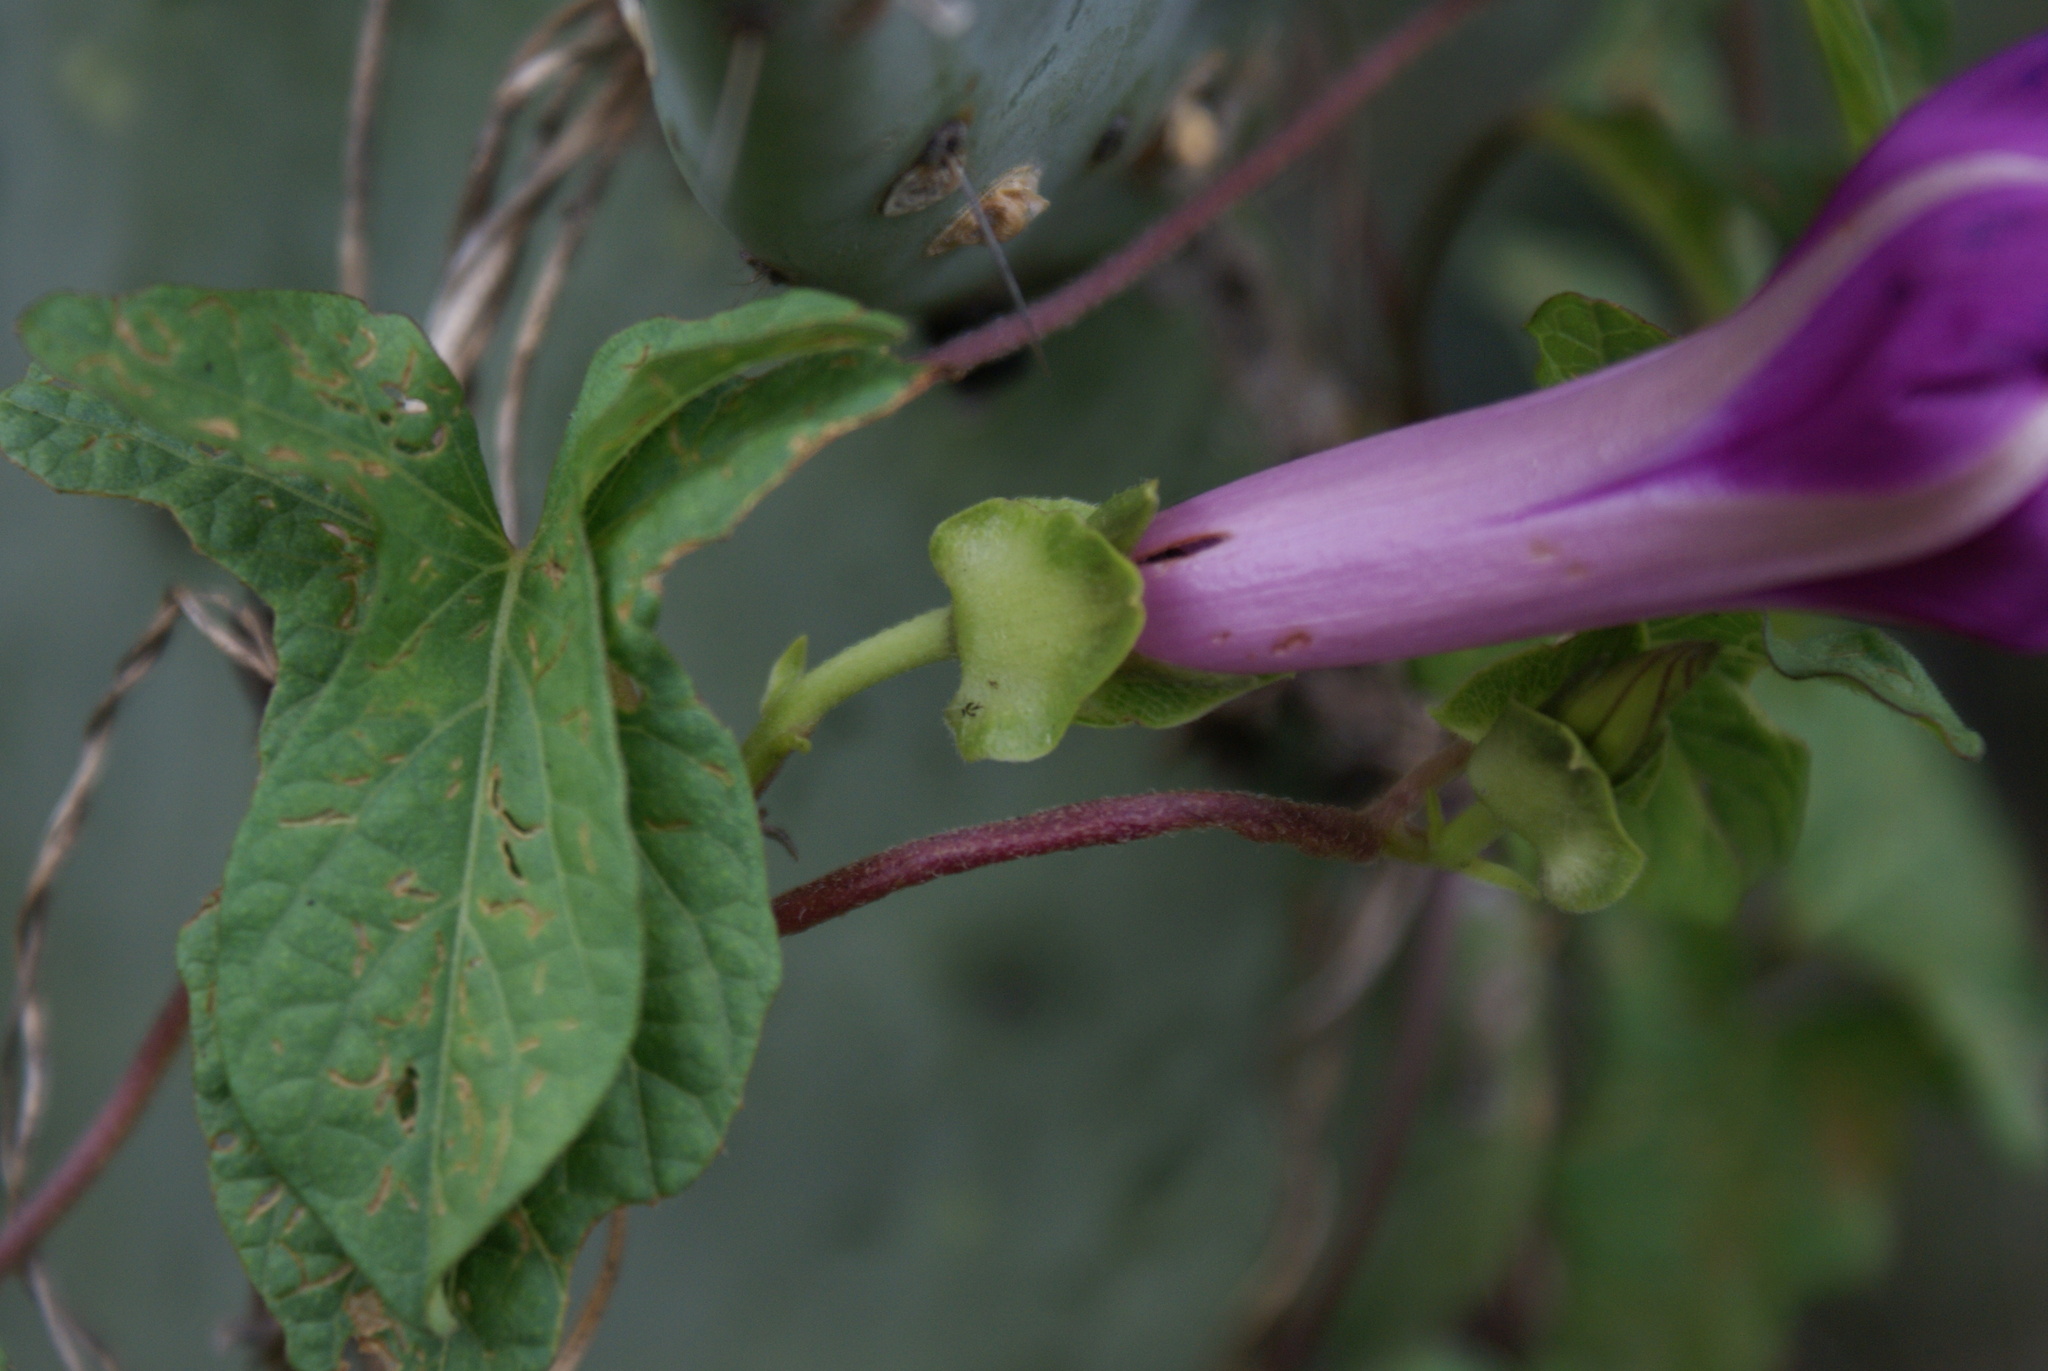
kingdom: Plantae
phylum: Tracheophyta
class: Magnoliopsida
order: Solanales
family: Convolvulaceae
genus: Ipomoea
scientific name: Ipomoea decasperma
